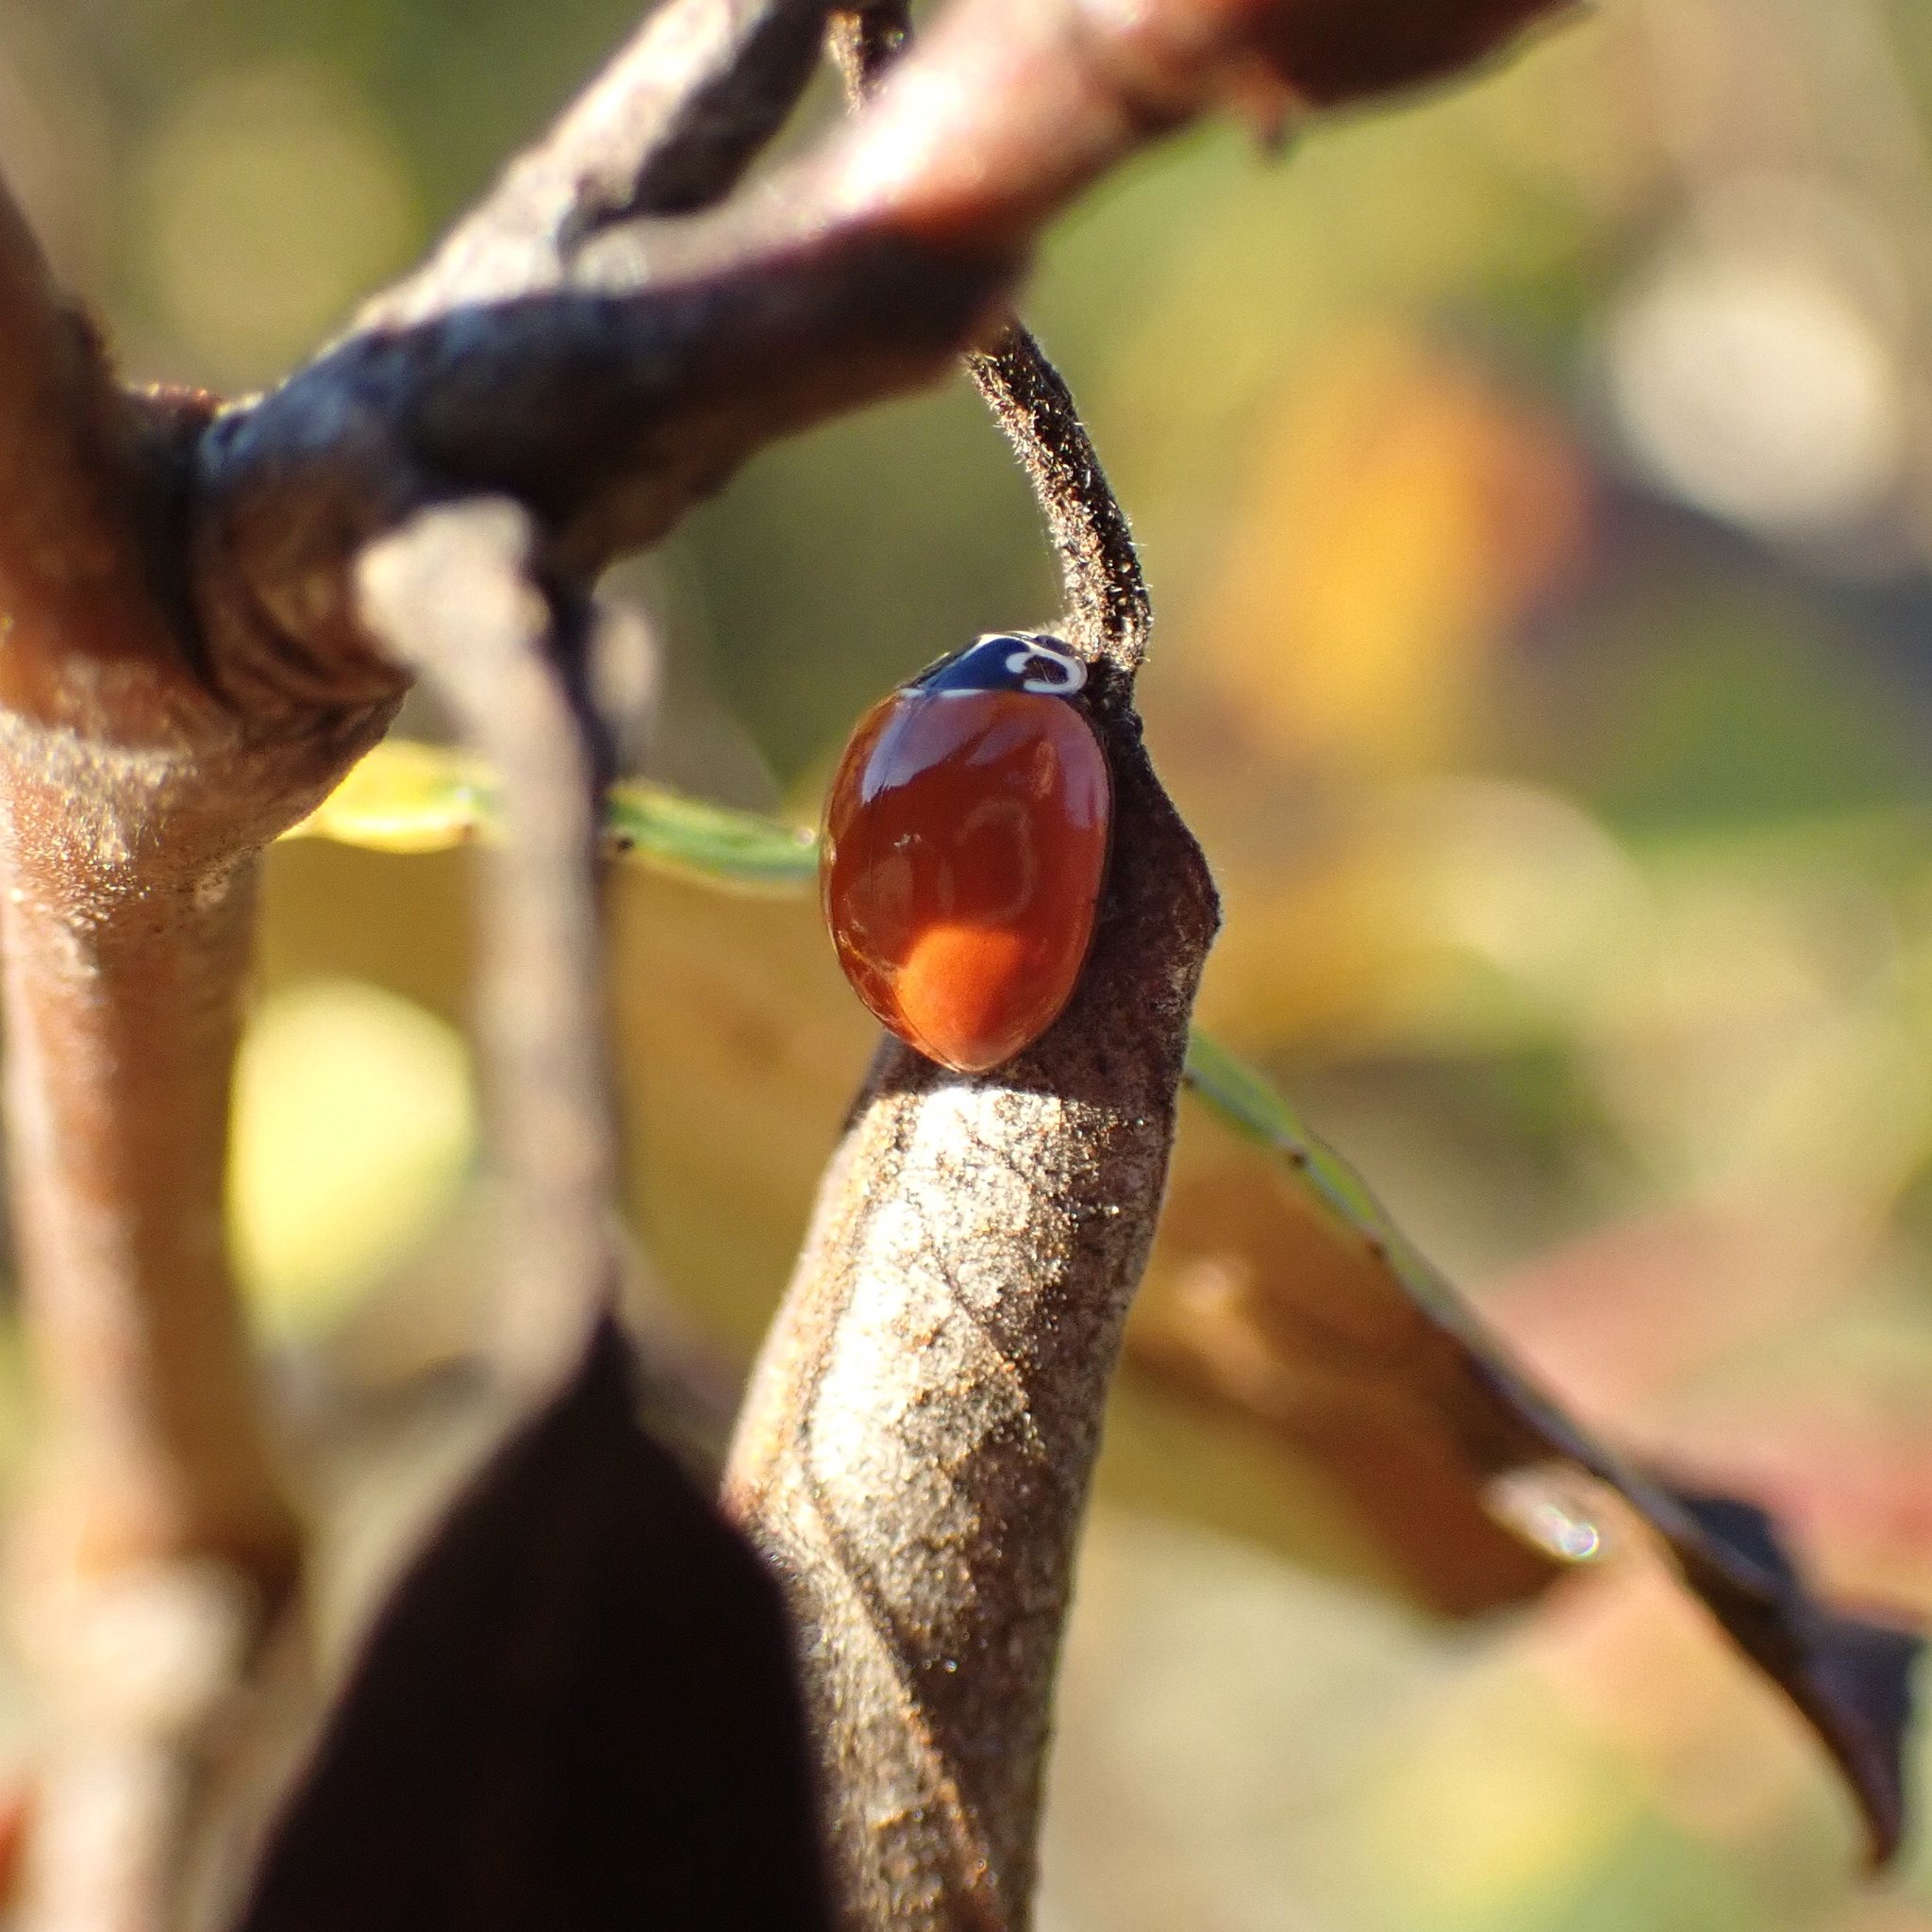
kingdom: Animalia
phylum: Arthropoda
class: Insecta
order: Coleoptera
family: Coccinellidae
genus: Cycloneda
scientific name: Cycloneda polita
